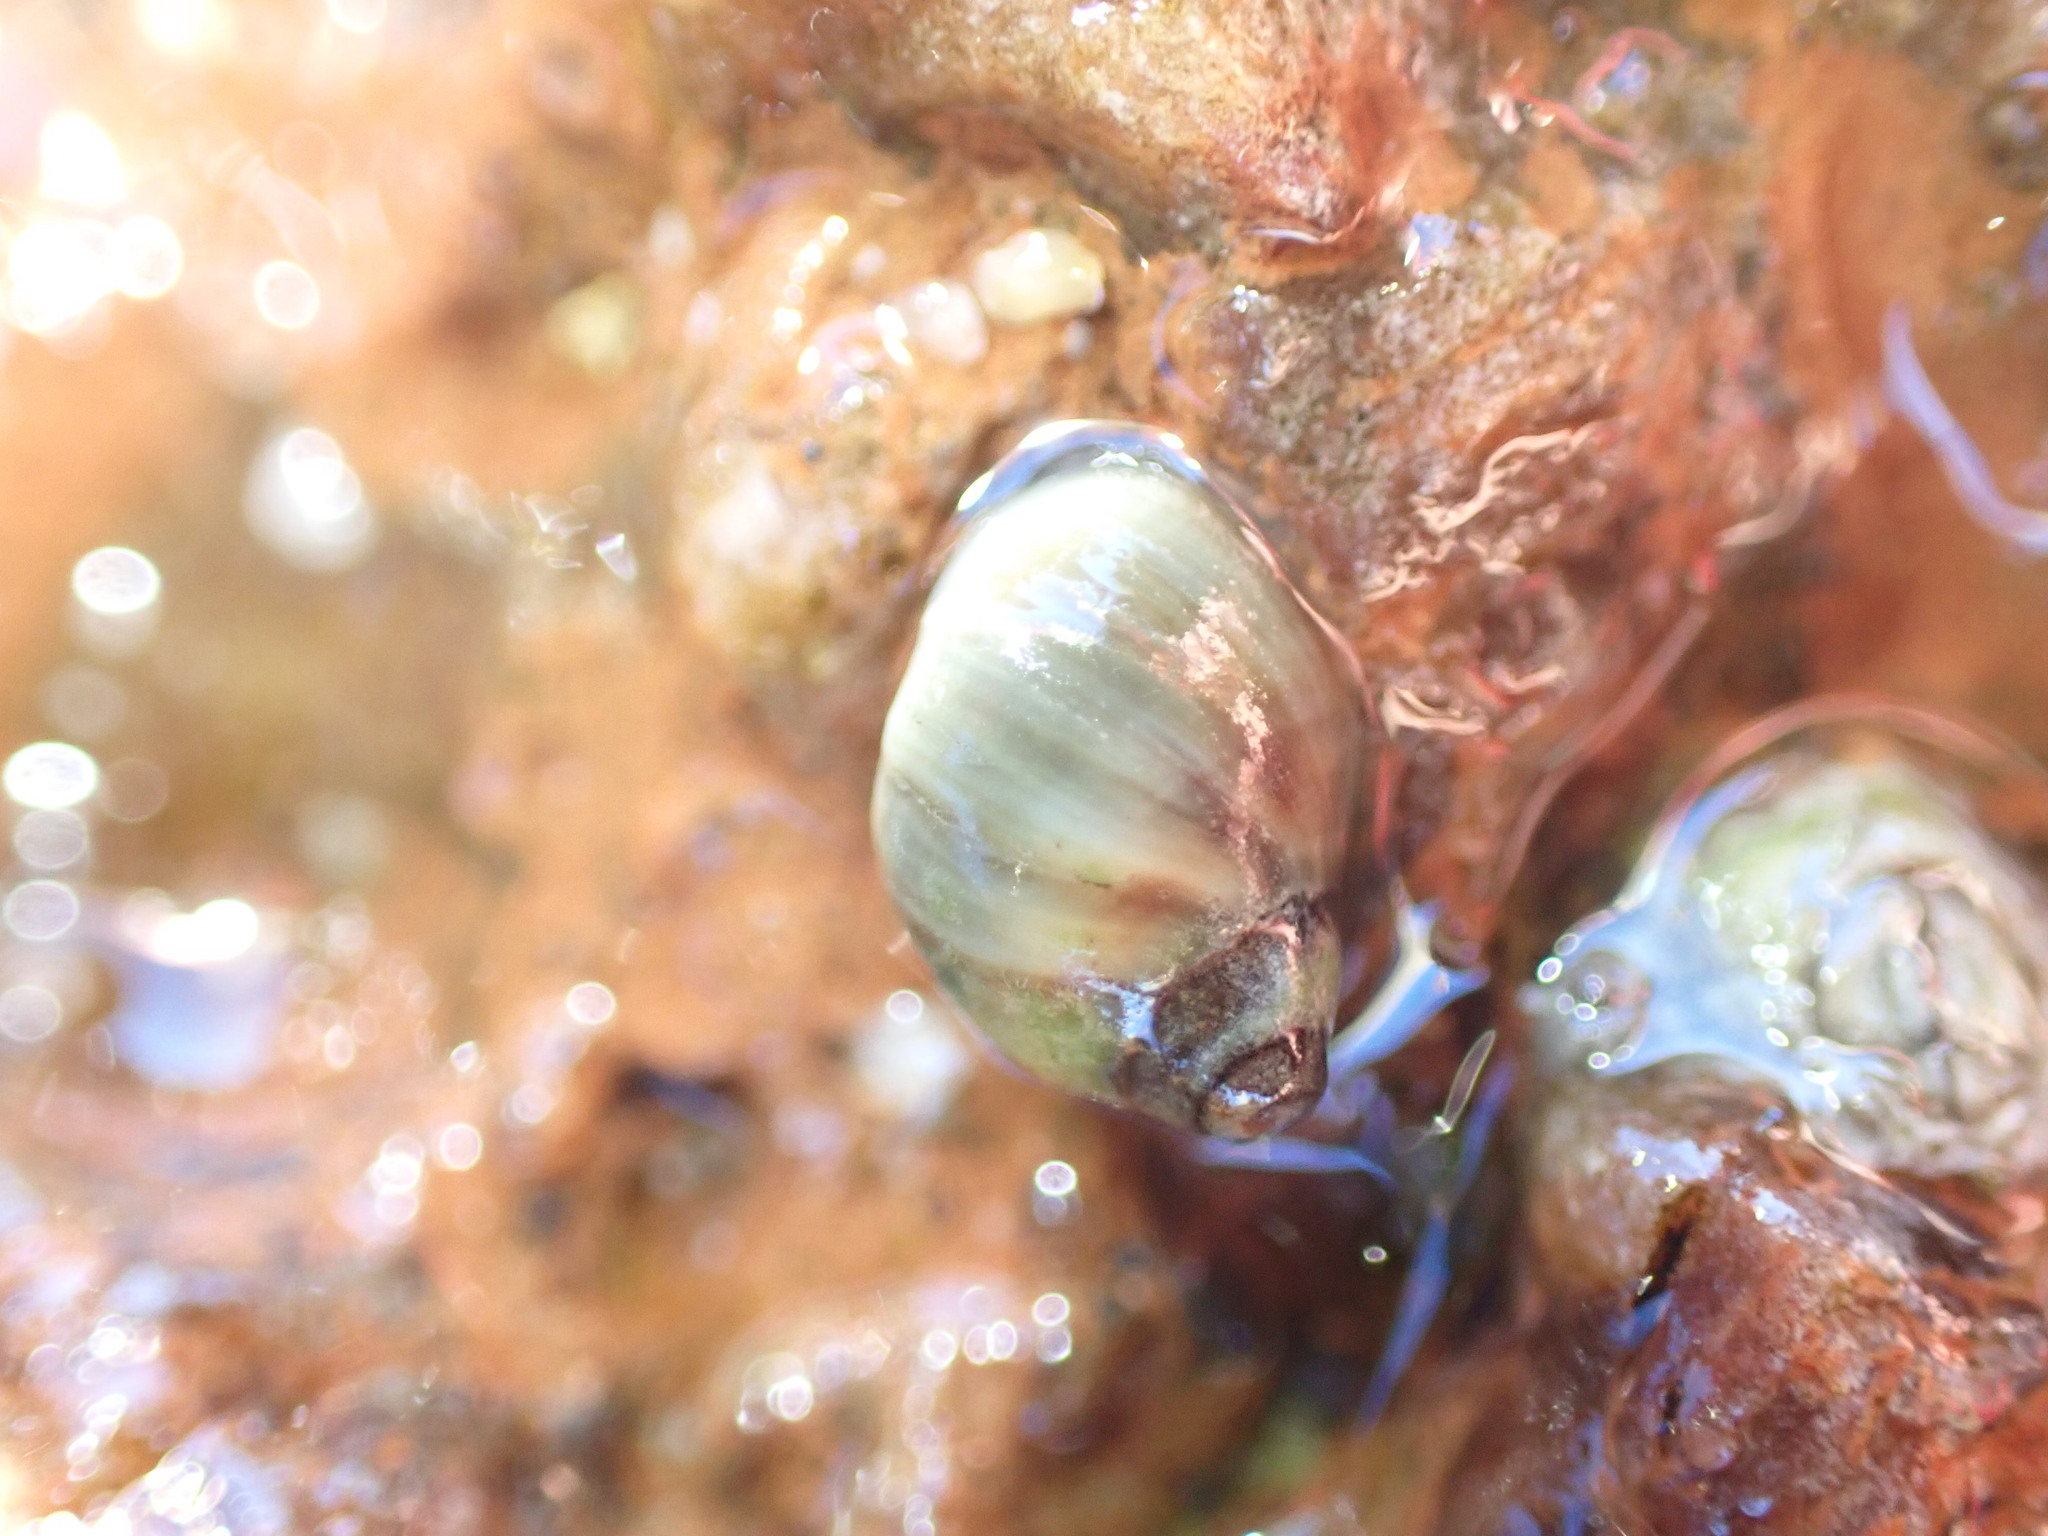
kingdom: Animalia
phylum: Mollusca
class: Gastropoda
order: Littorinimorpha
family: Littorinidae
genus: Melarhaphe
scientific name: Melarhaphe neritoides
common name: Small periwinkle
